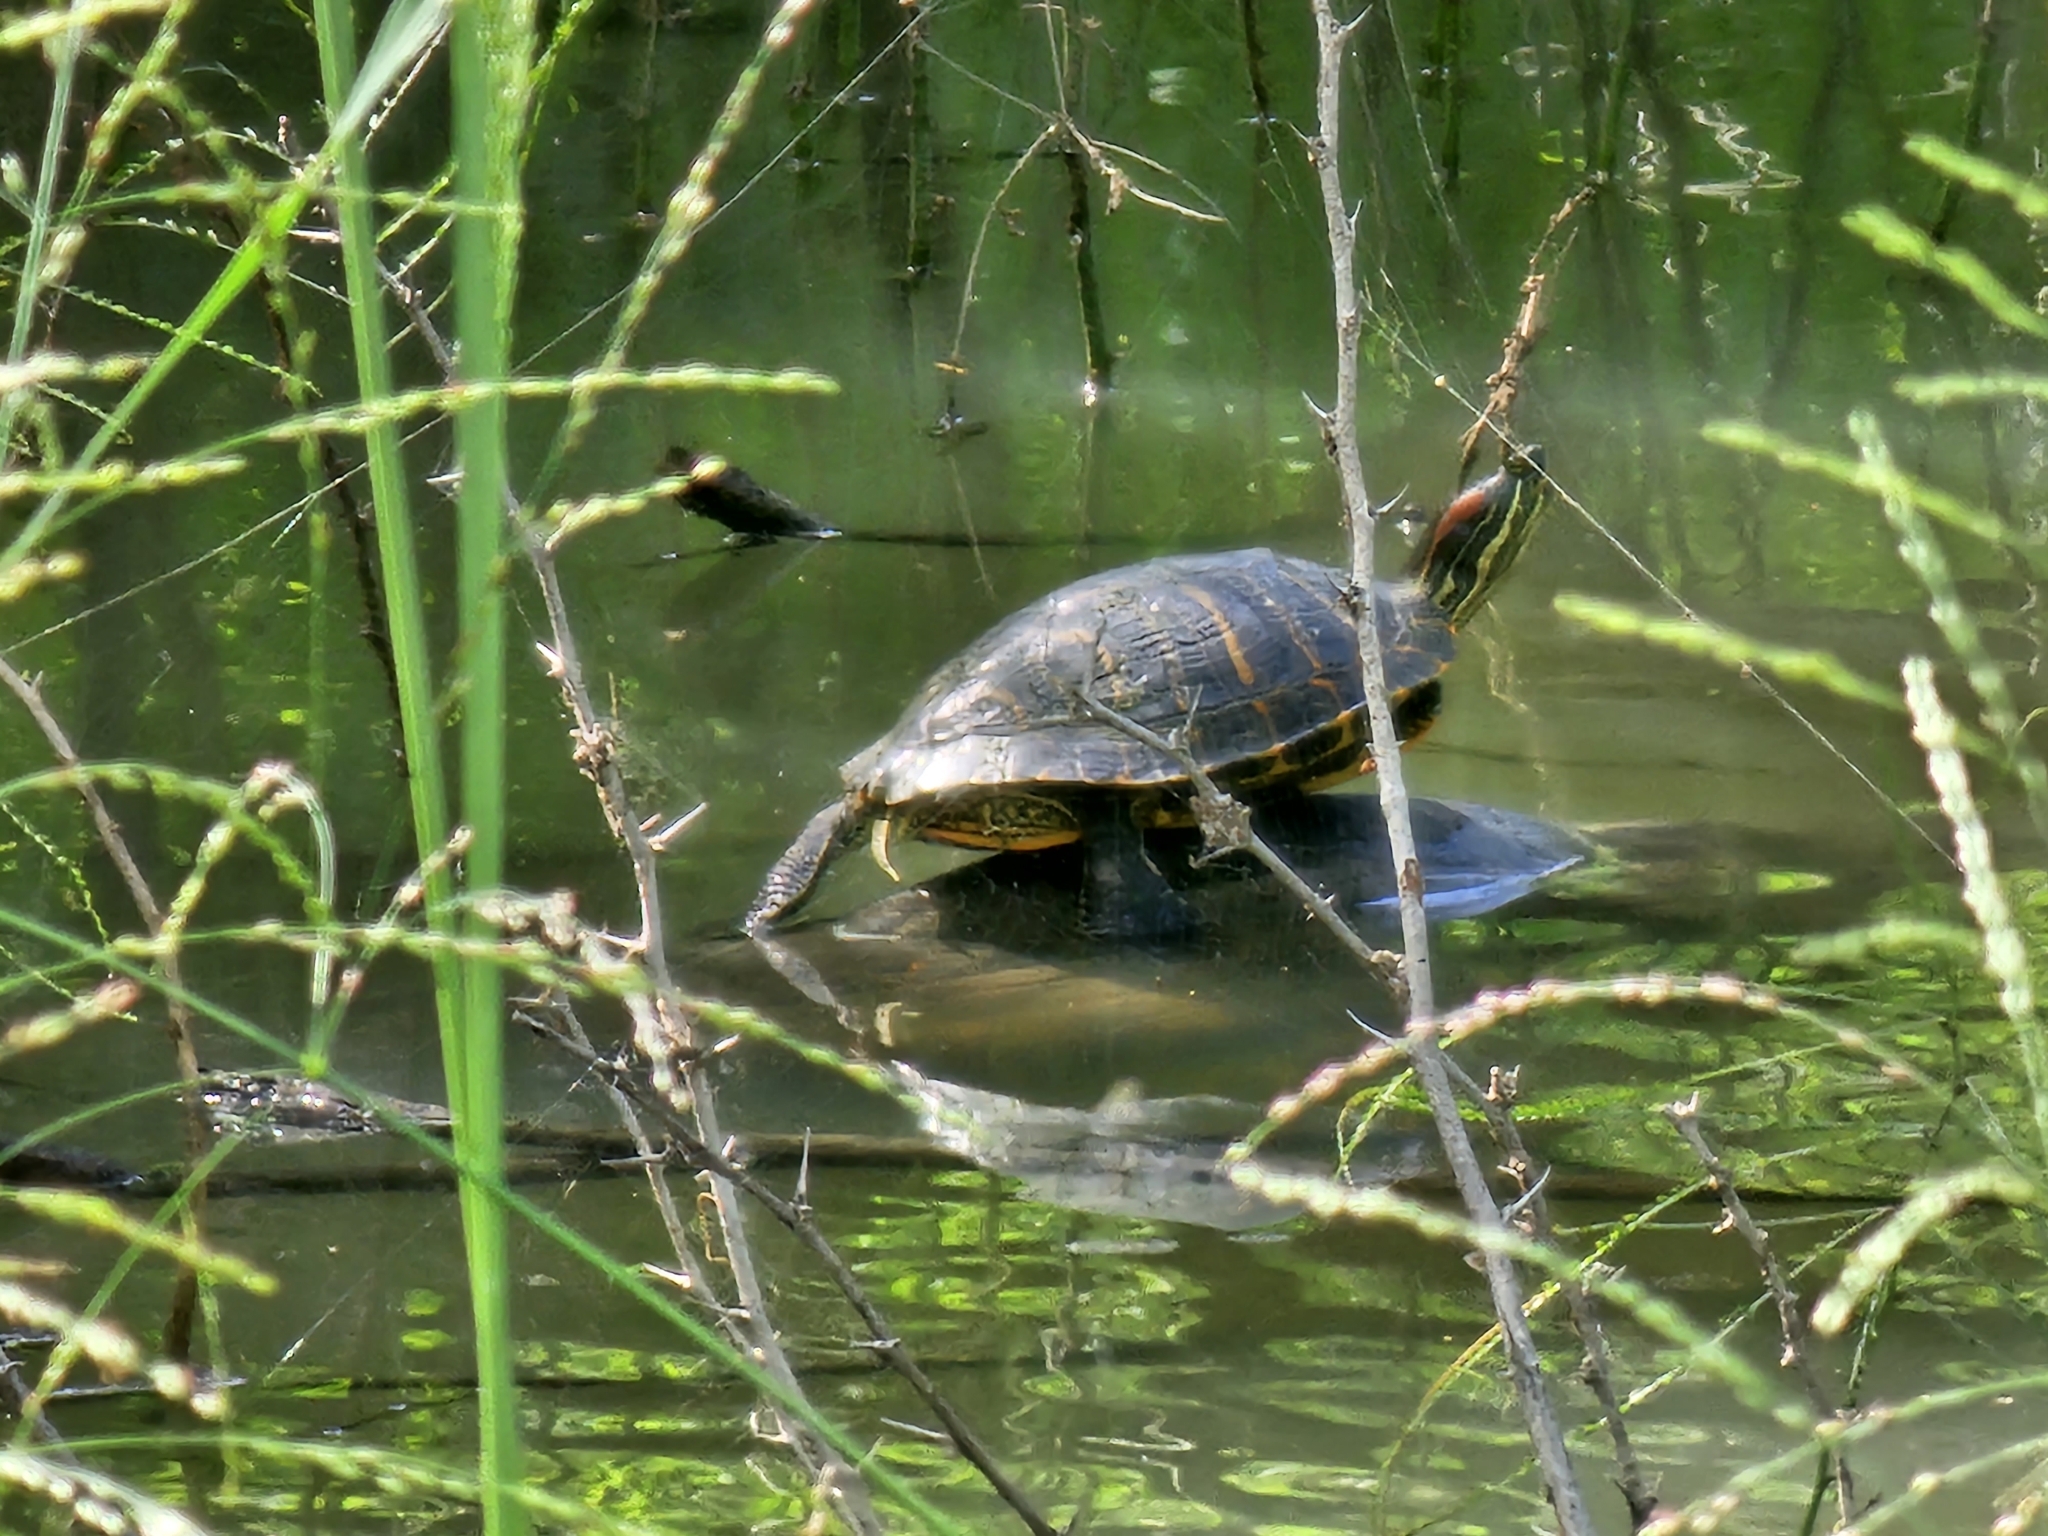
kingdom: Animalia
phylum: Chordata
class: Testudines
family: Emydidae
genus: Trachemys
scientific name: Trachemys scripta
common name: Slider
